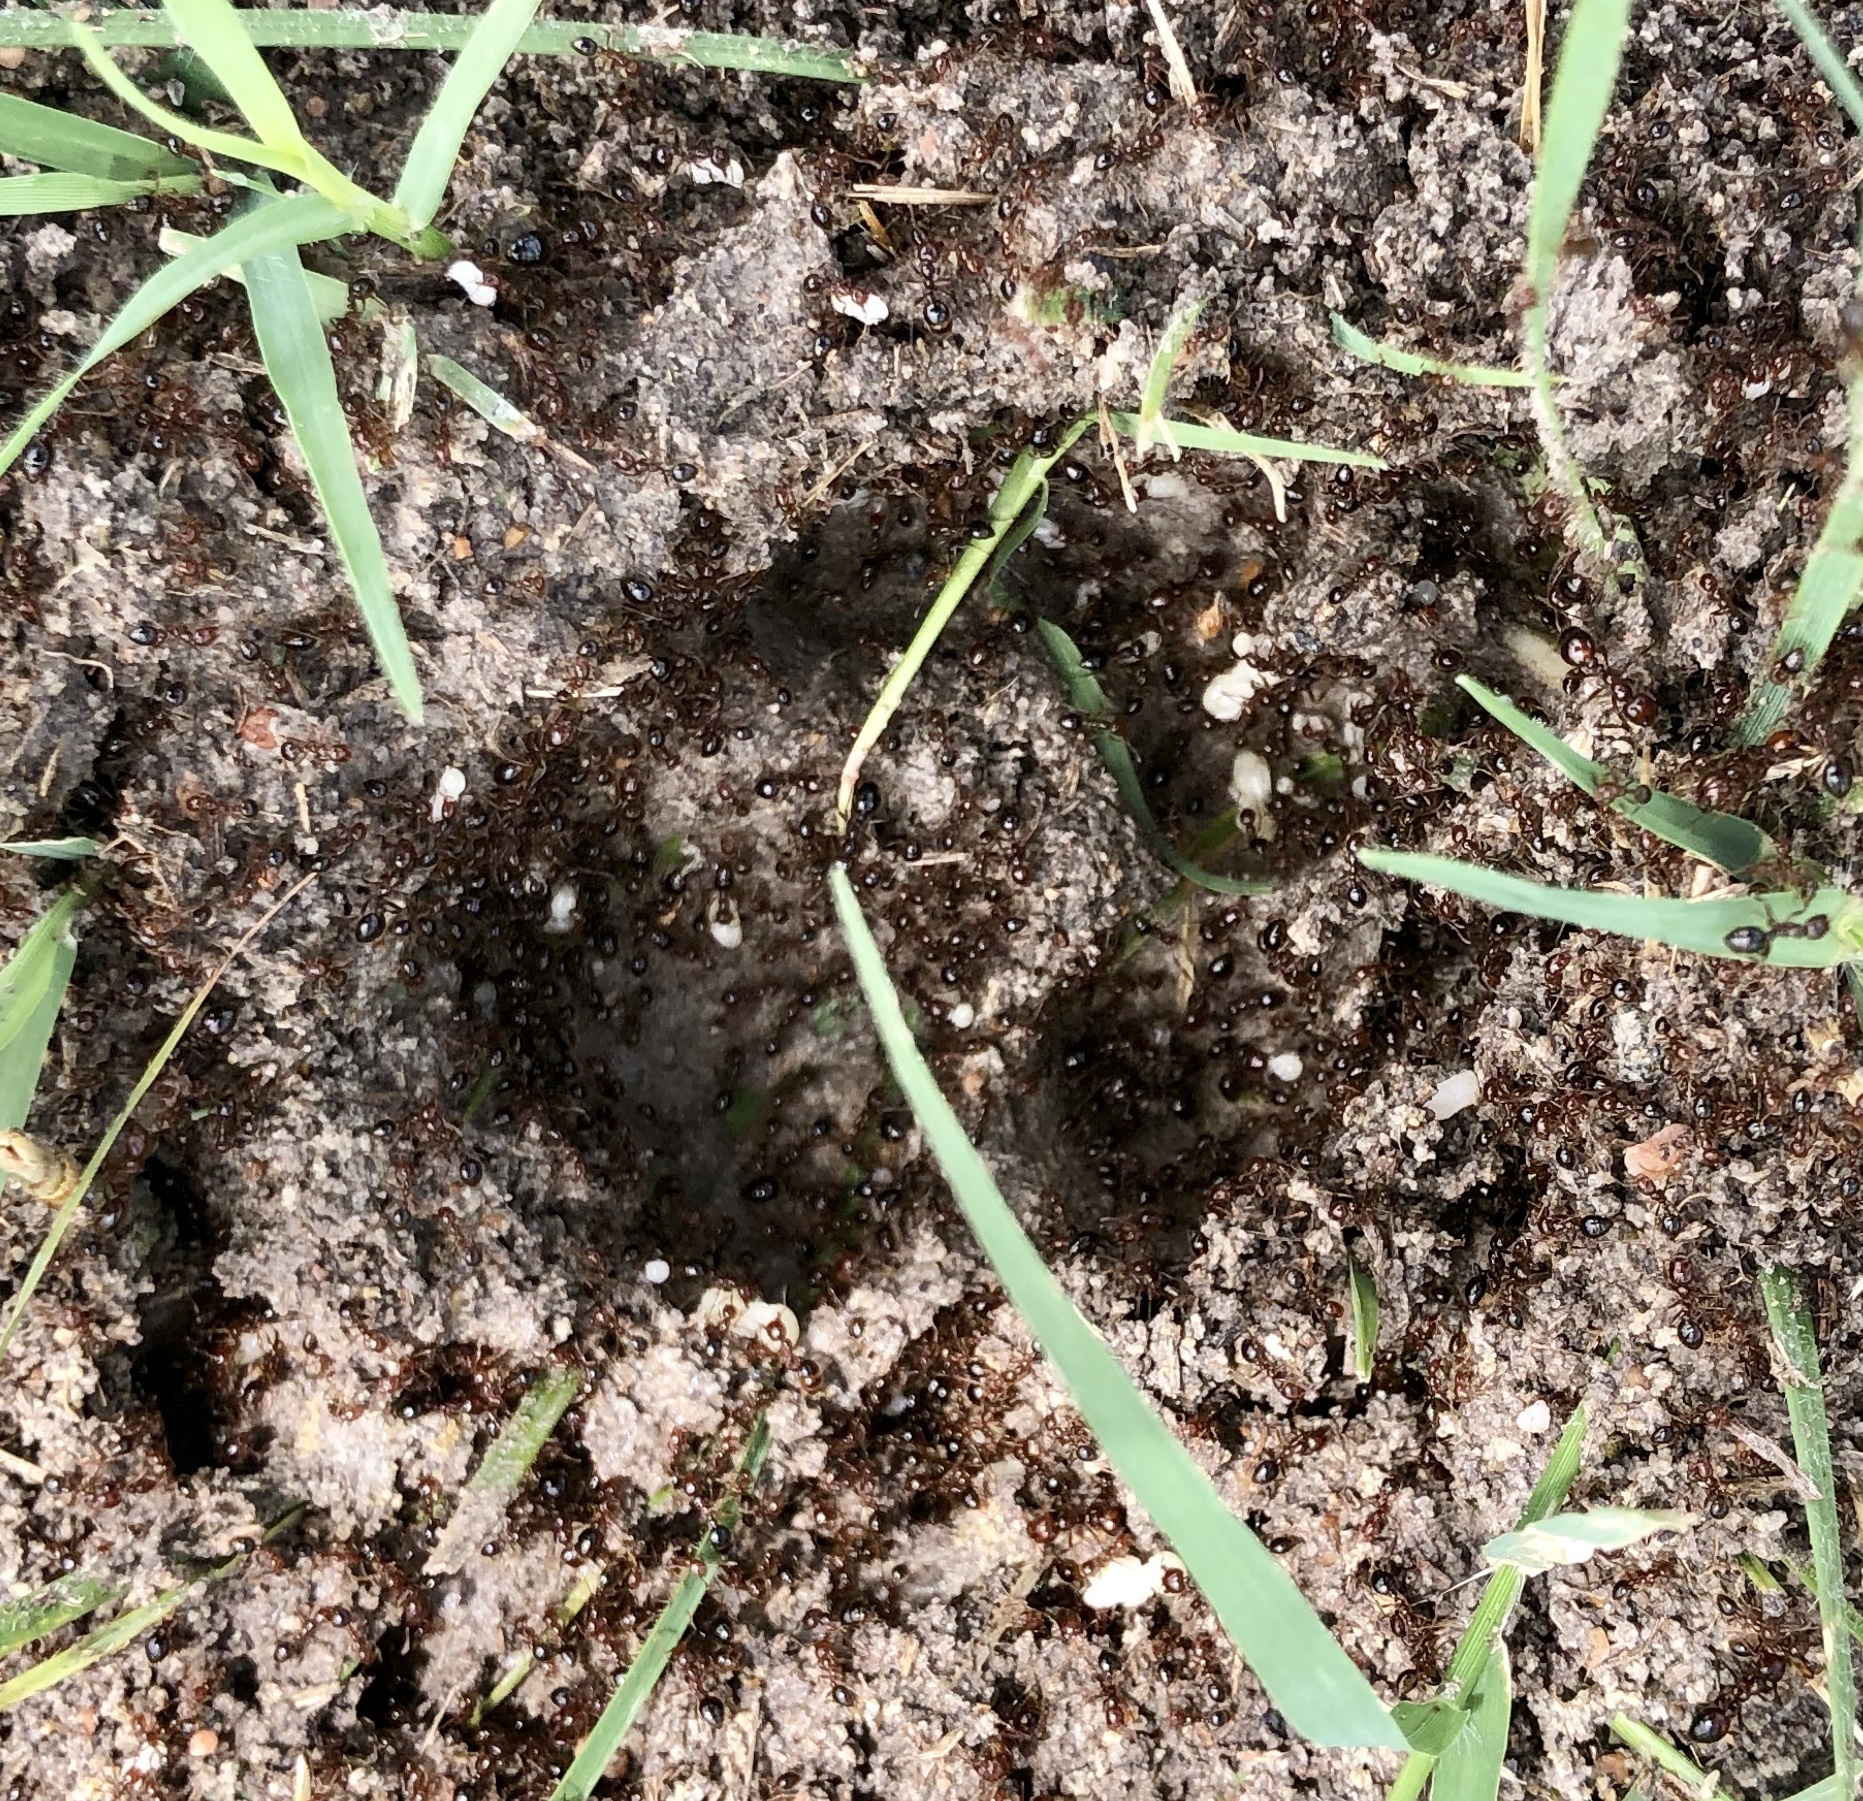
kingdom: Animalia
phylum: Arthropoda
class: Insecta
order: Hymenoptera
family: Formicidae
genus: Solenopsis
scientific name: Solenopsis invicta
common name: Red imported fire ant
